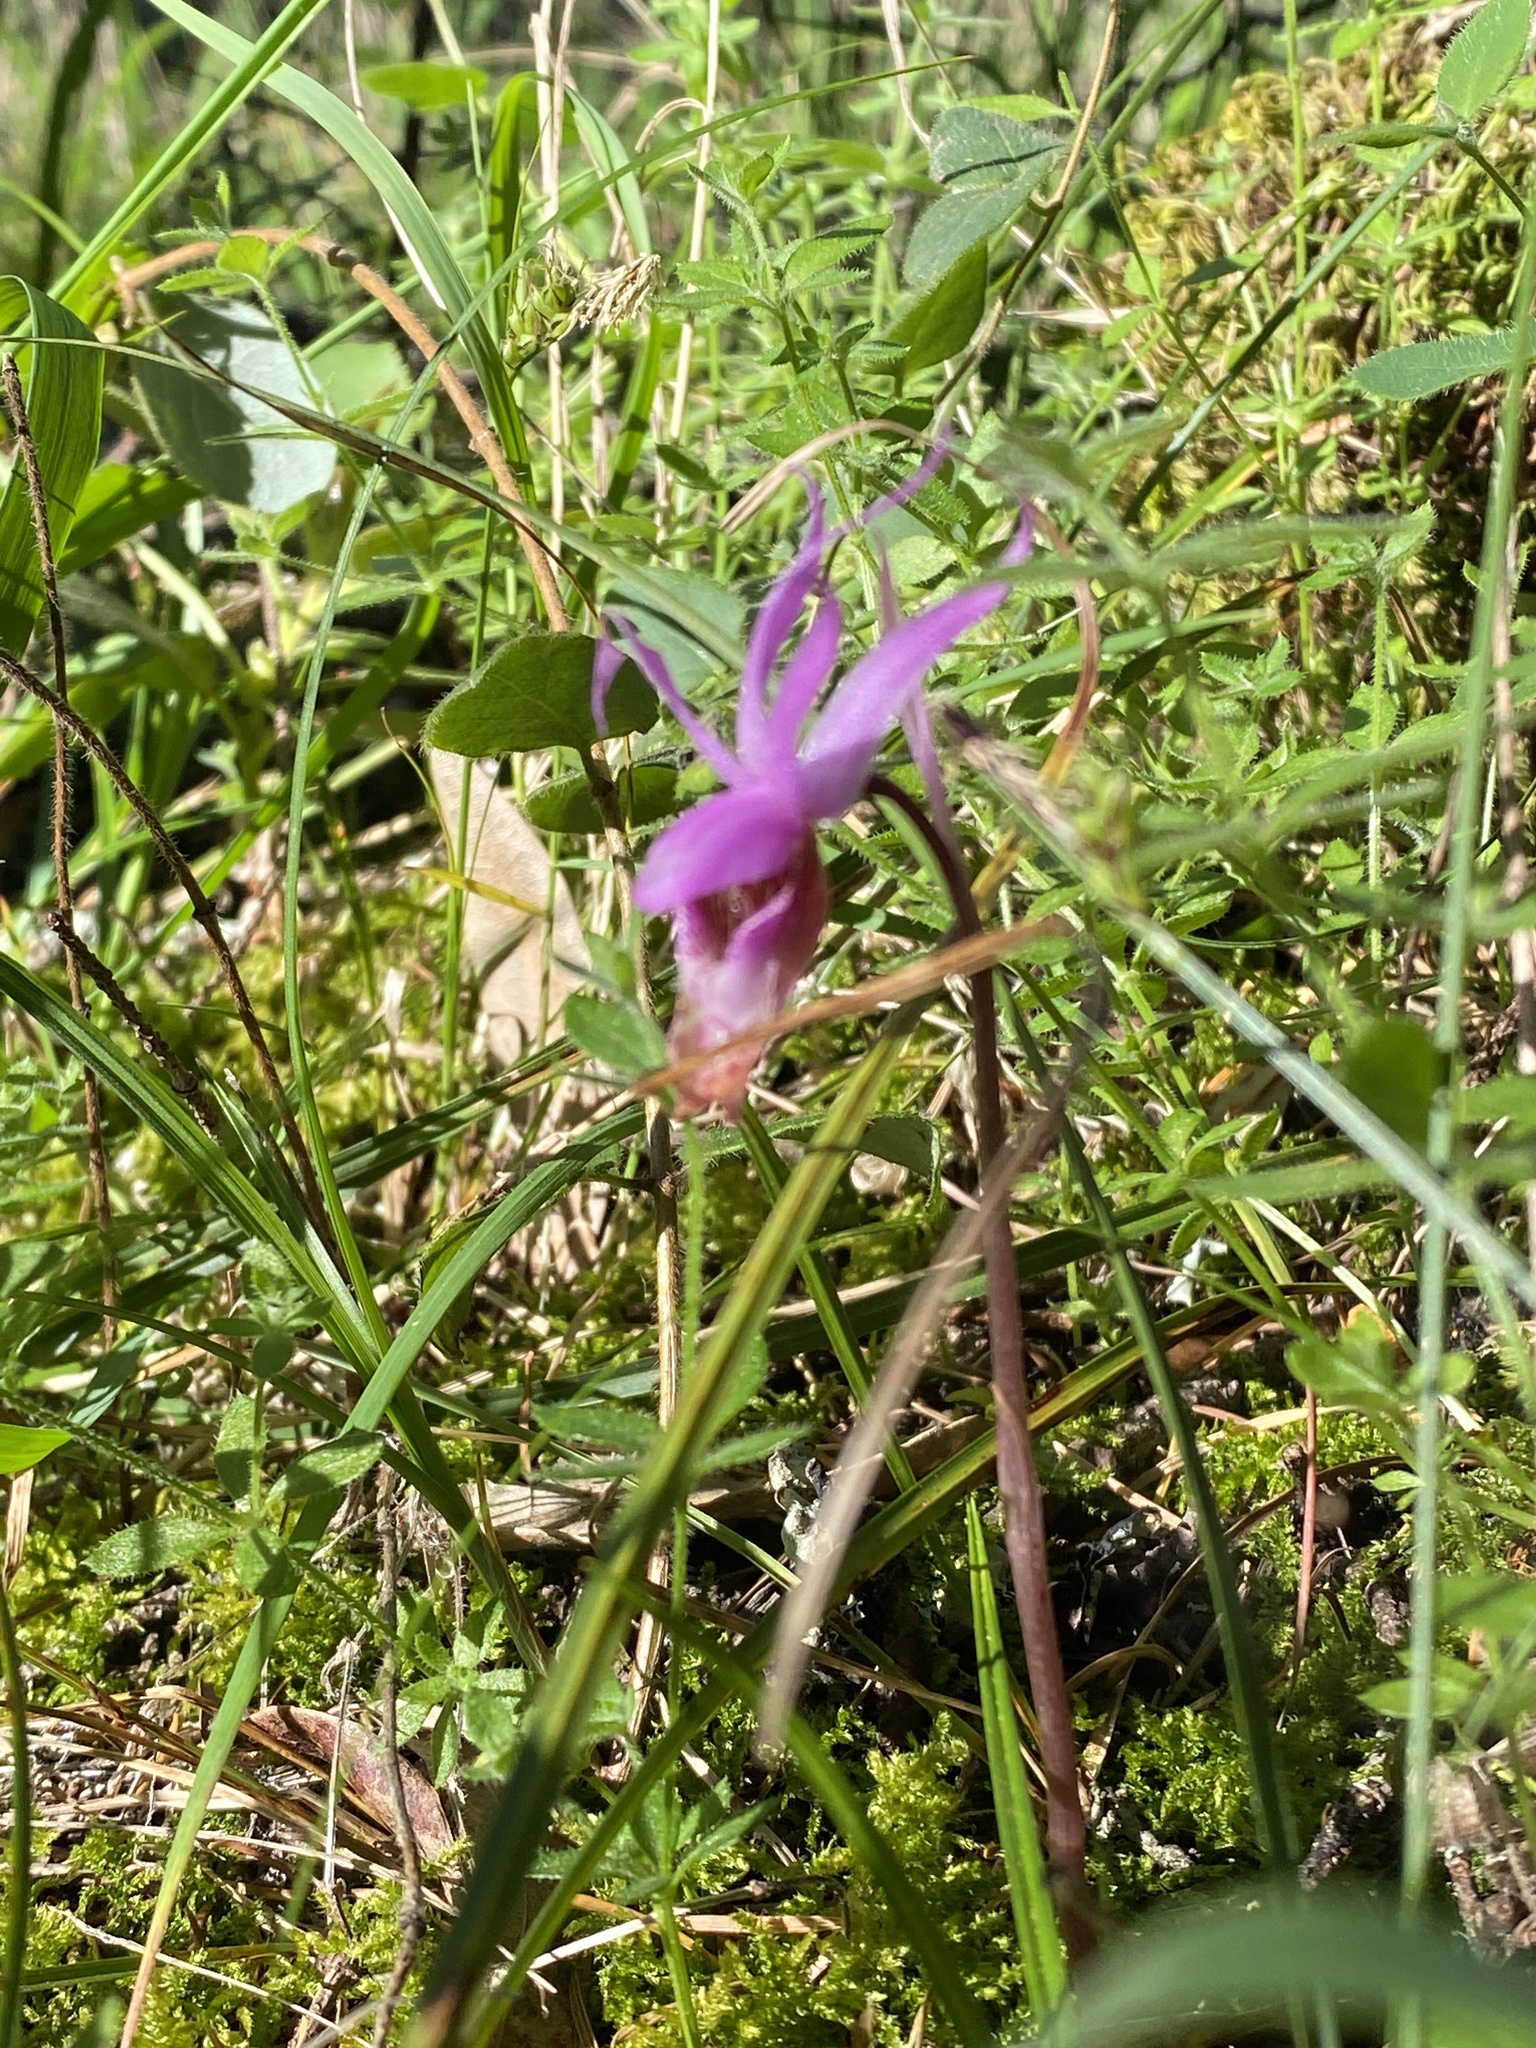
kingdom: Plantae
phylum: Tracheophyta
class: Liliopsida
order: Asparagales
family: Orchidaceae
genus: Calypso
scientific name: Calypso bulbosa
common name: Calypso
